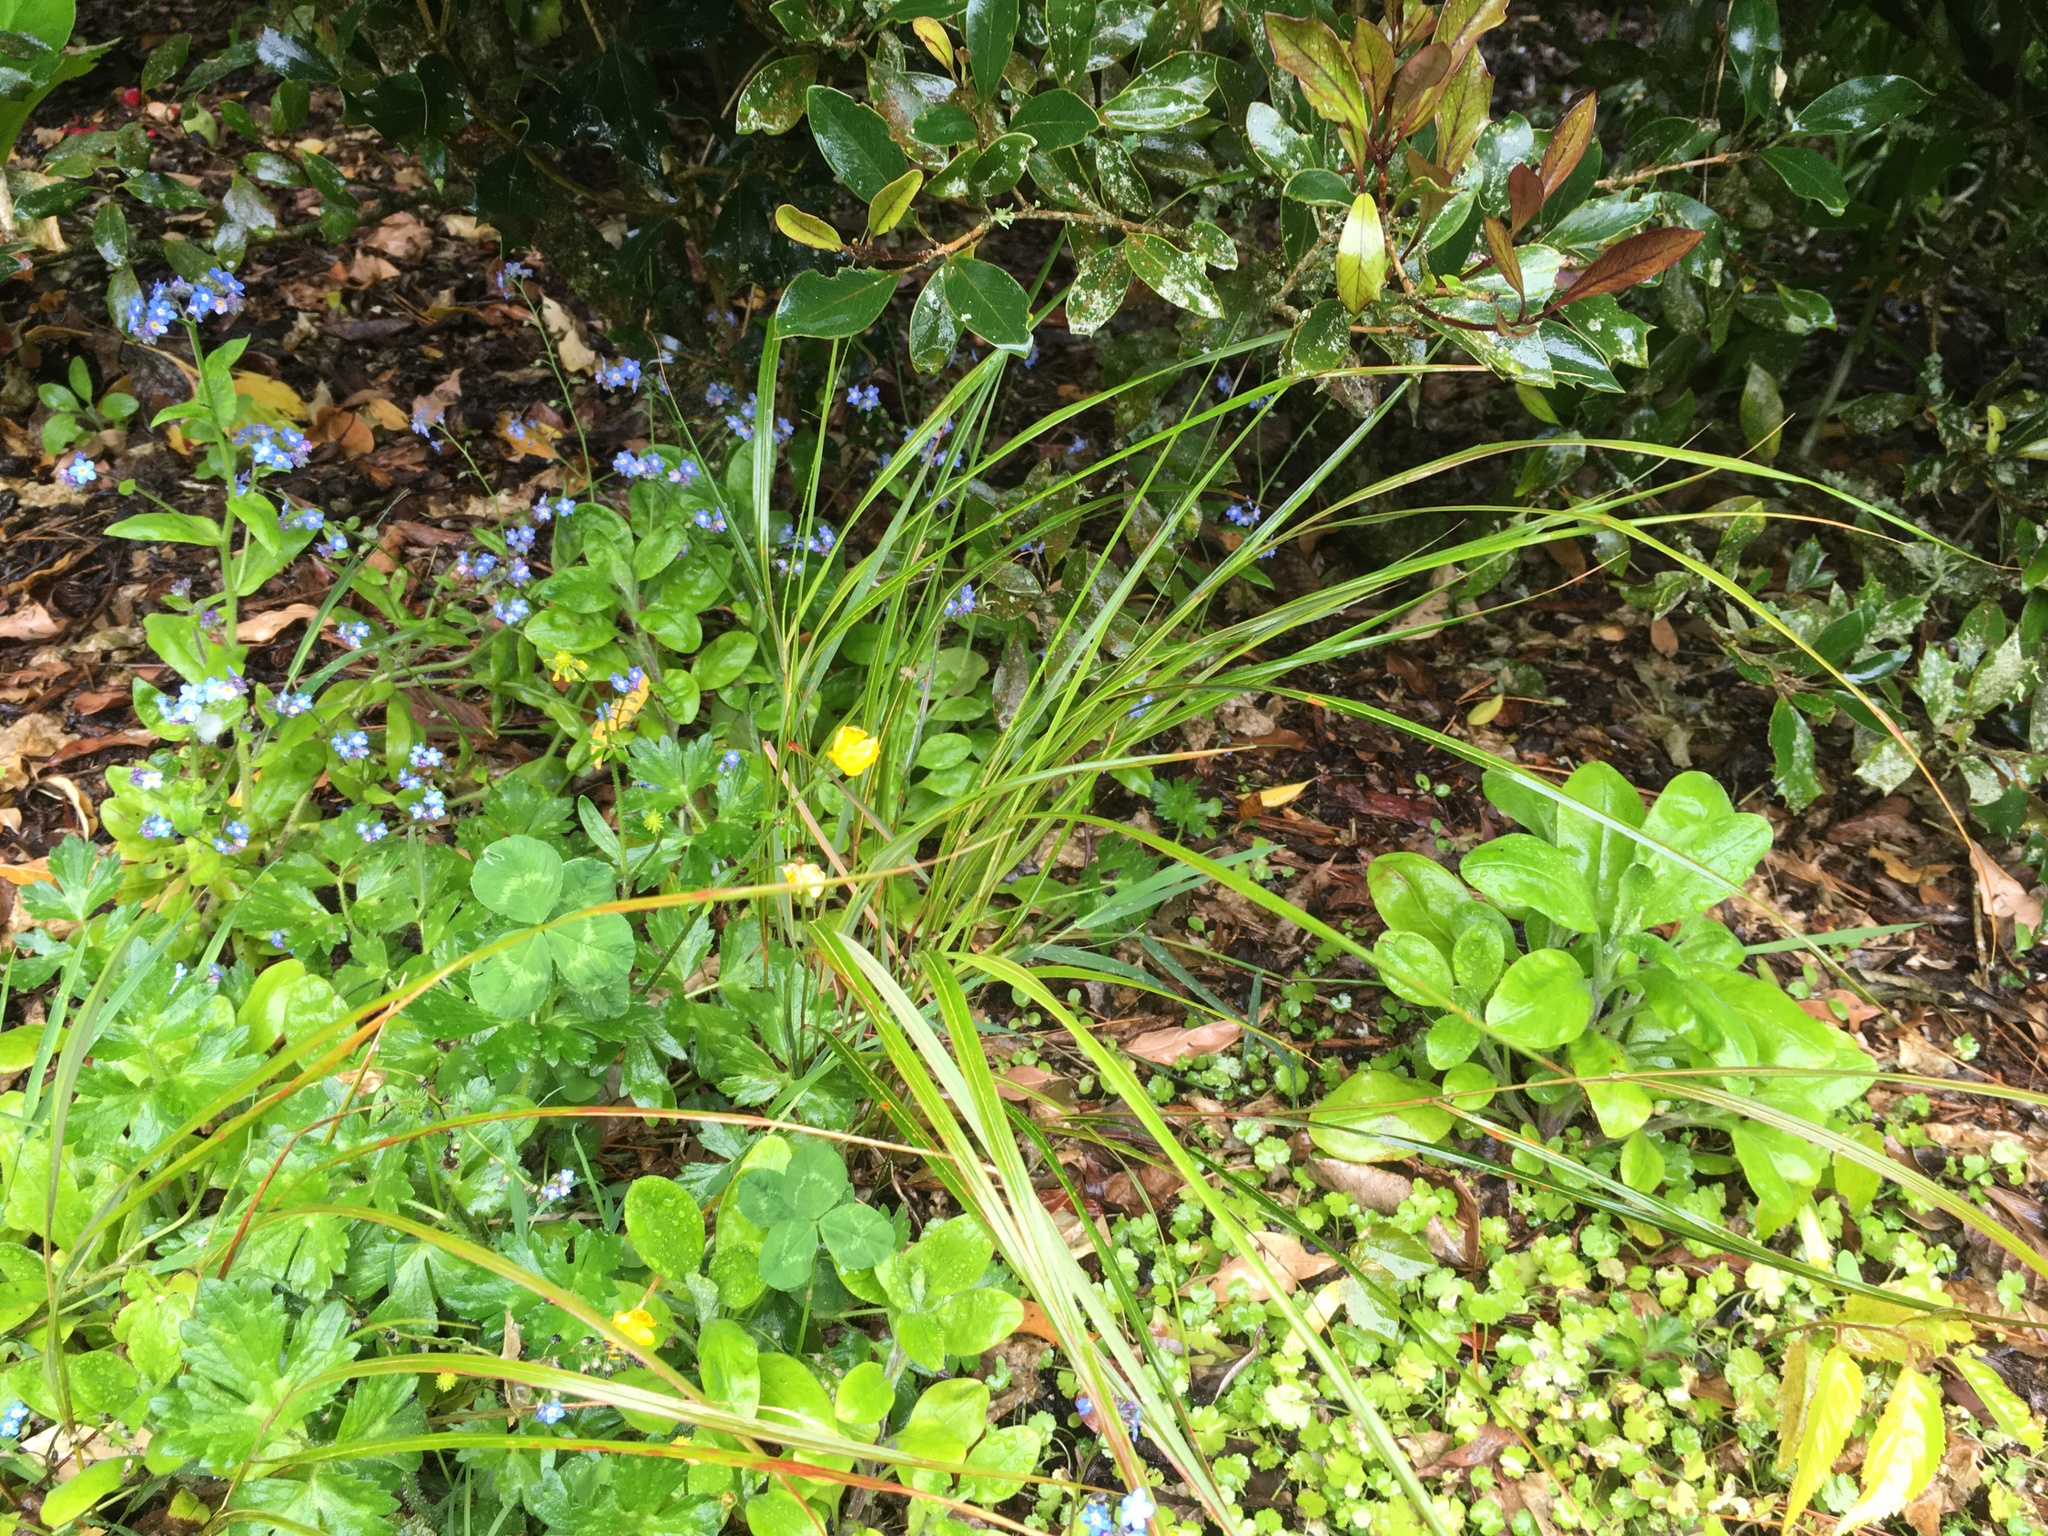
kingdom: Plantae
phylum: Tracheophyta
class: Liliopsida
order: Poales
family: Poaceae
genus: Anemanthele
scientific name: Anemanthele lessoniana
